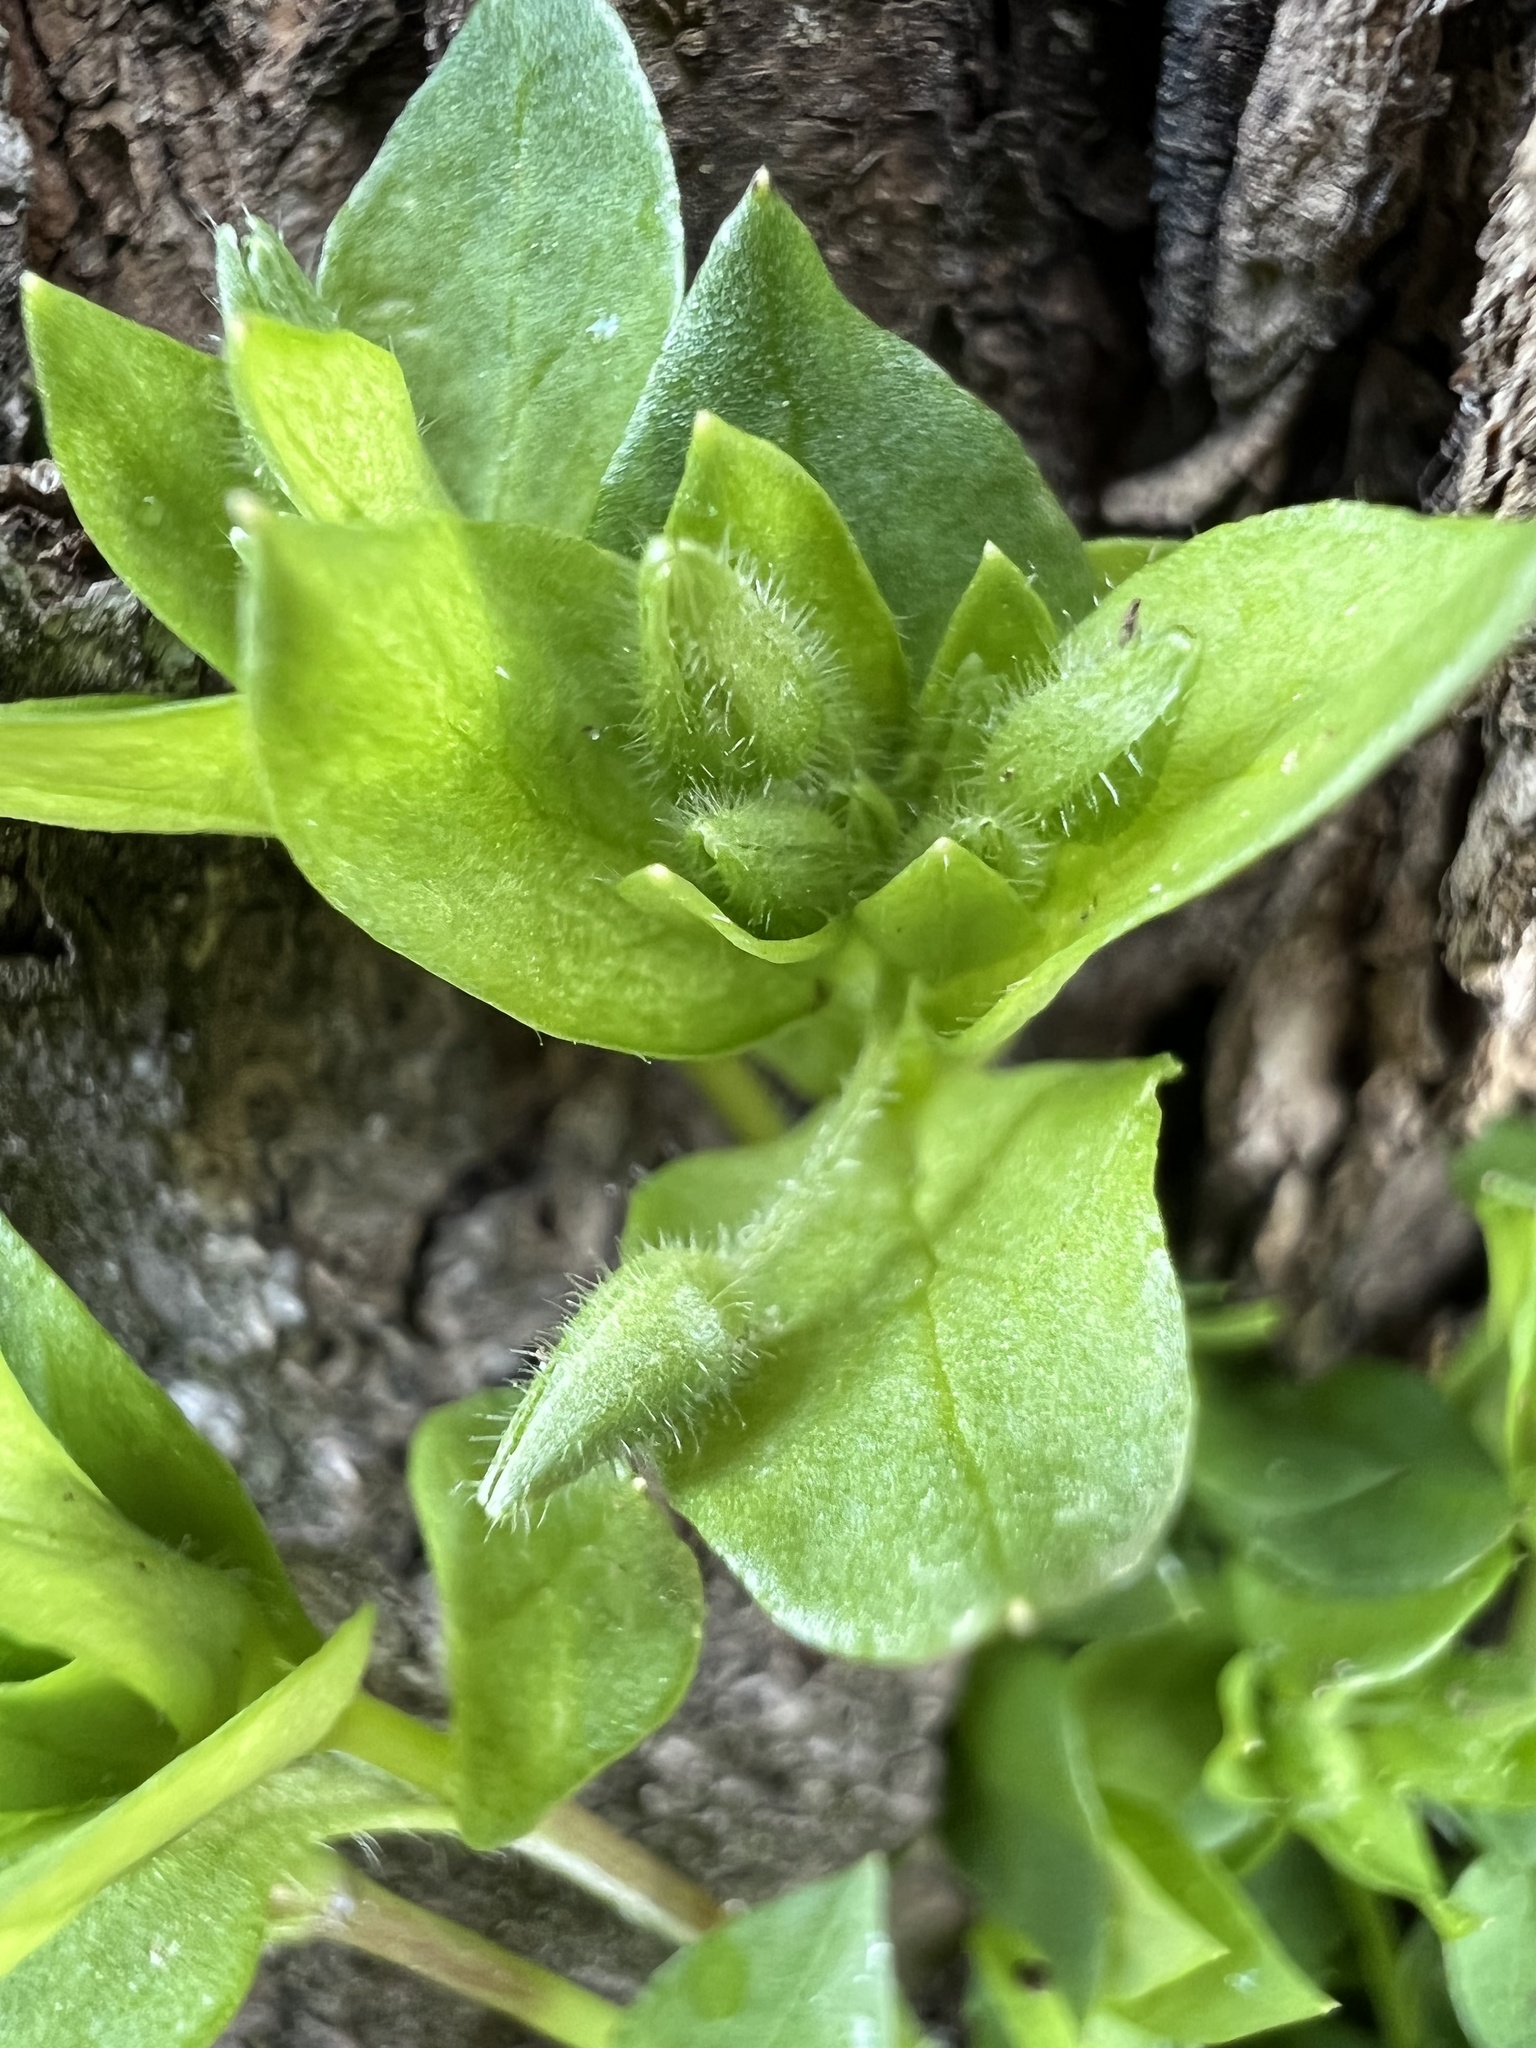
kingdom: Plantae
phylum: Tracheophyta
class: Magnoliopsida
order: Caryophyllales
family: Caryophyllaceae
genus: Stellaria
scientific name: Stellaria media
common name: Common chickweed
